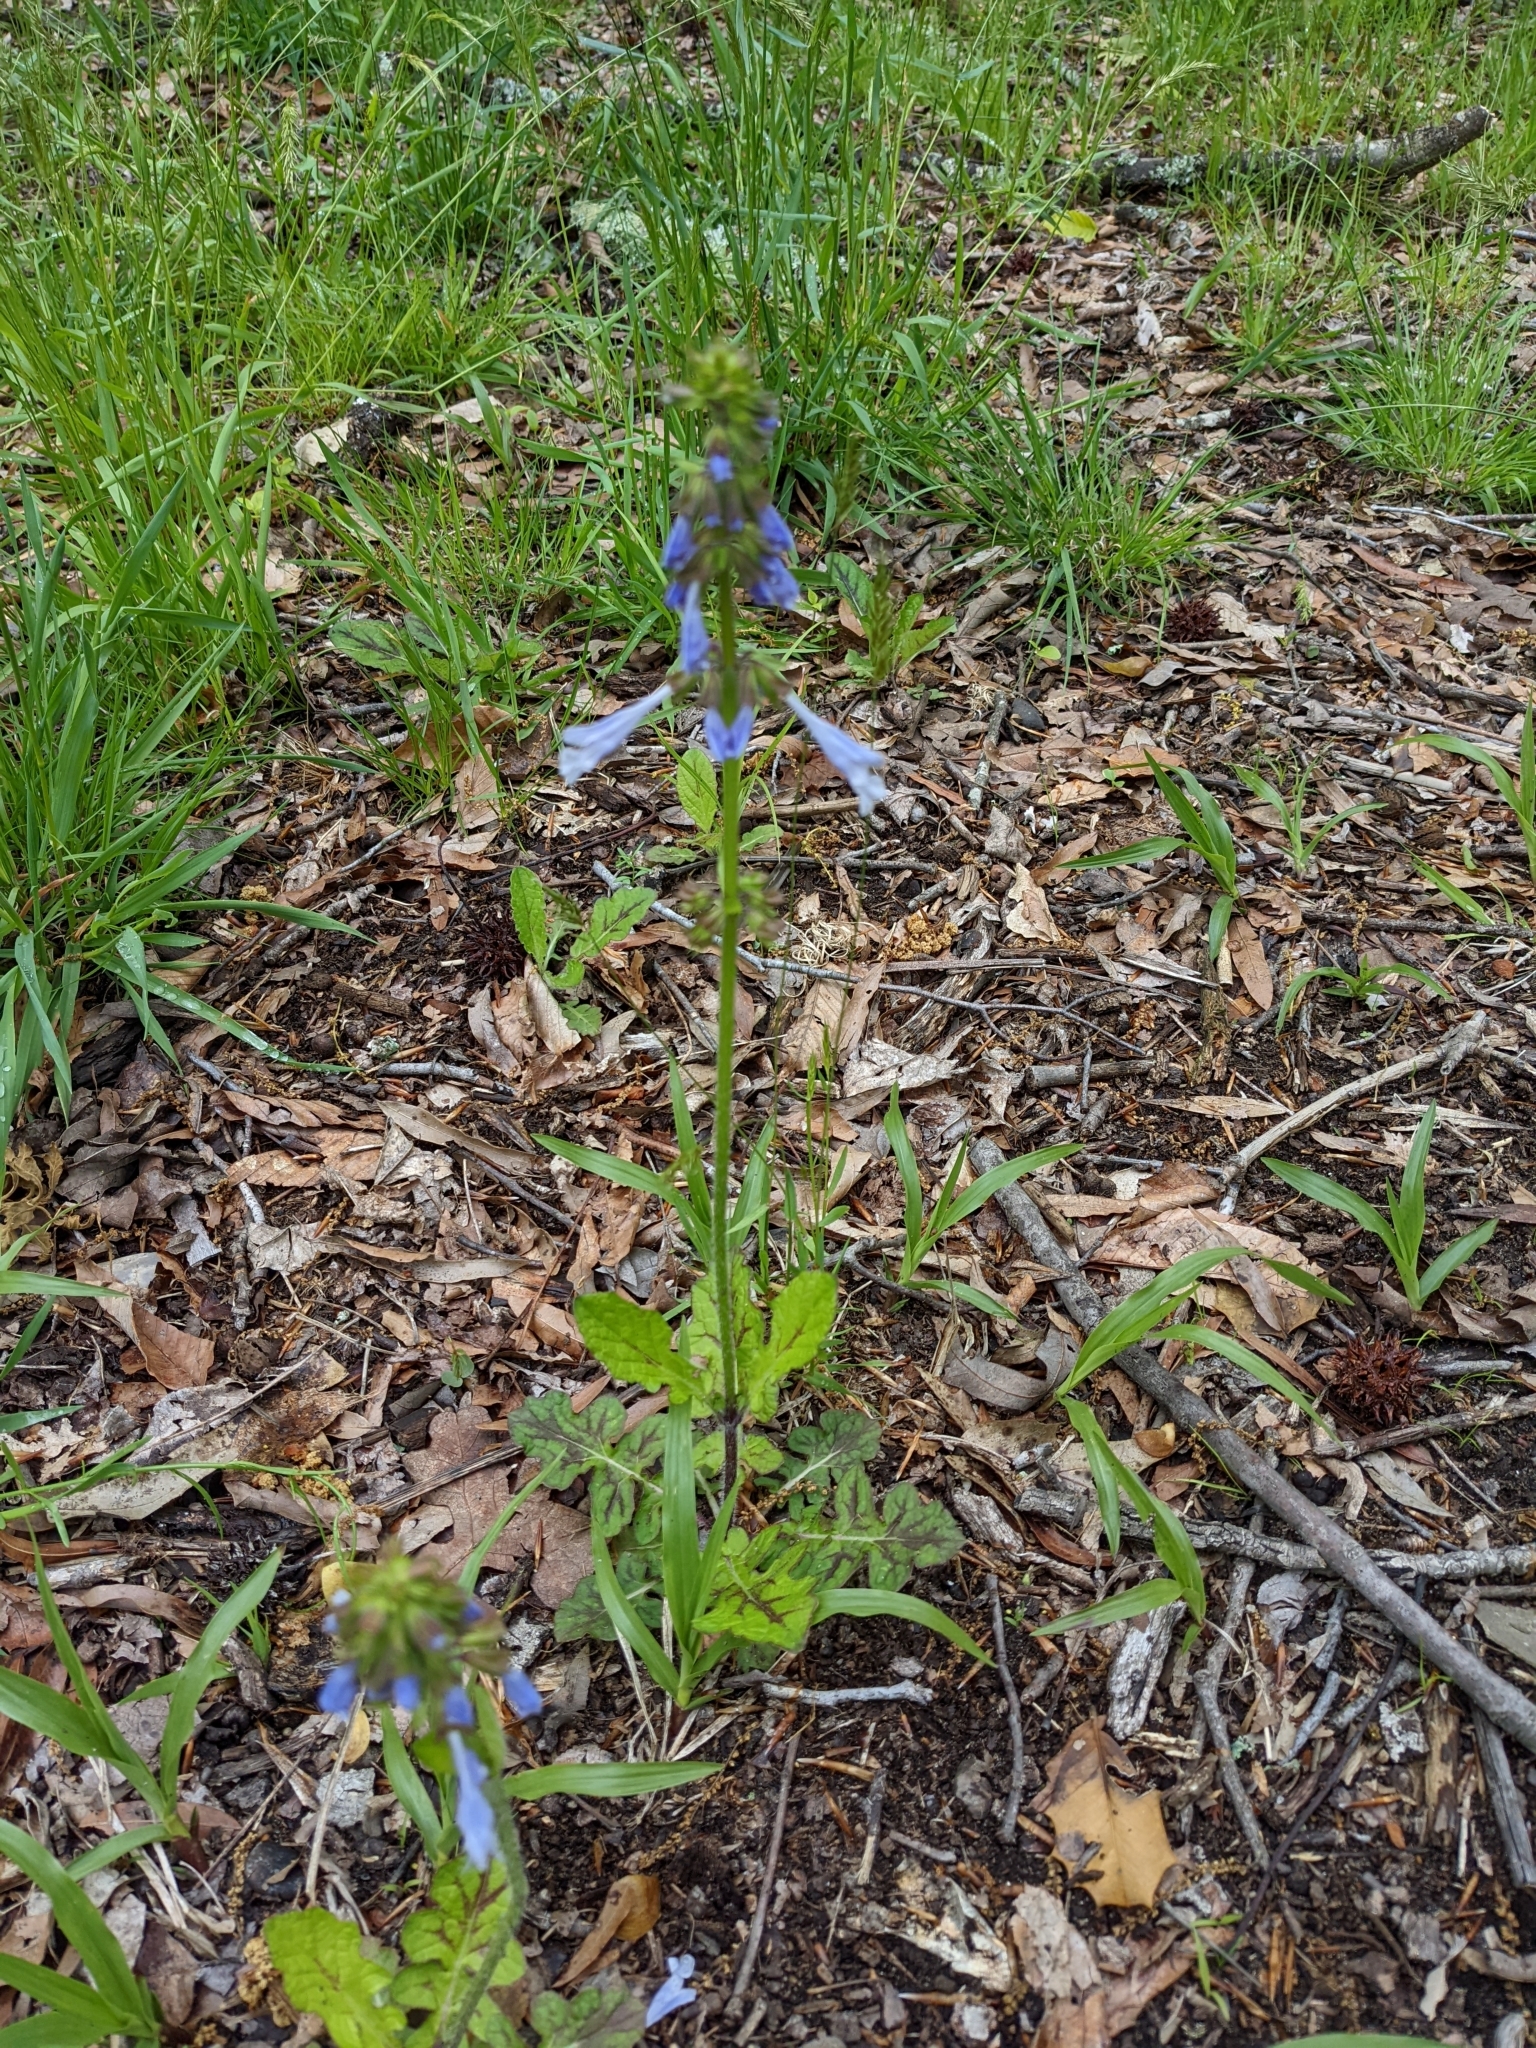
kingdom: Plantae
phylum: Tracheophyta
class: Magnoliopsida
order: Lamiales
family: Lamiaceae
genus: Salvia
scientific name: Salvia lyrata
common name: Cancerweed
